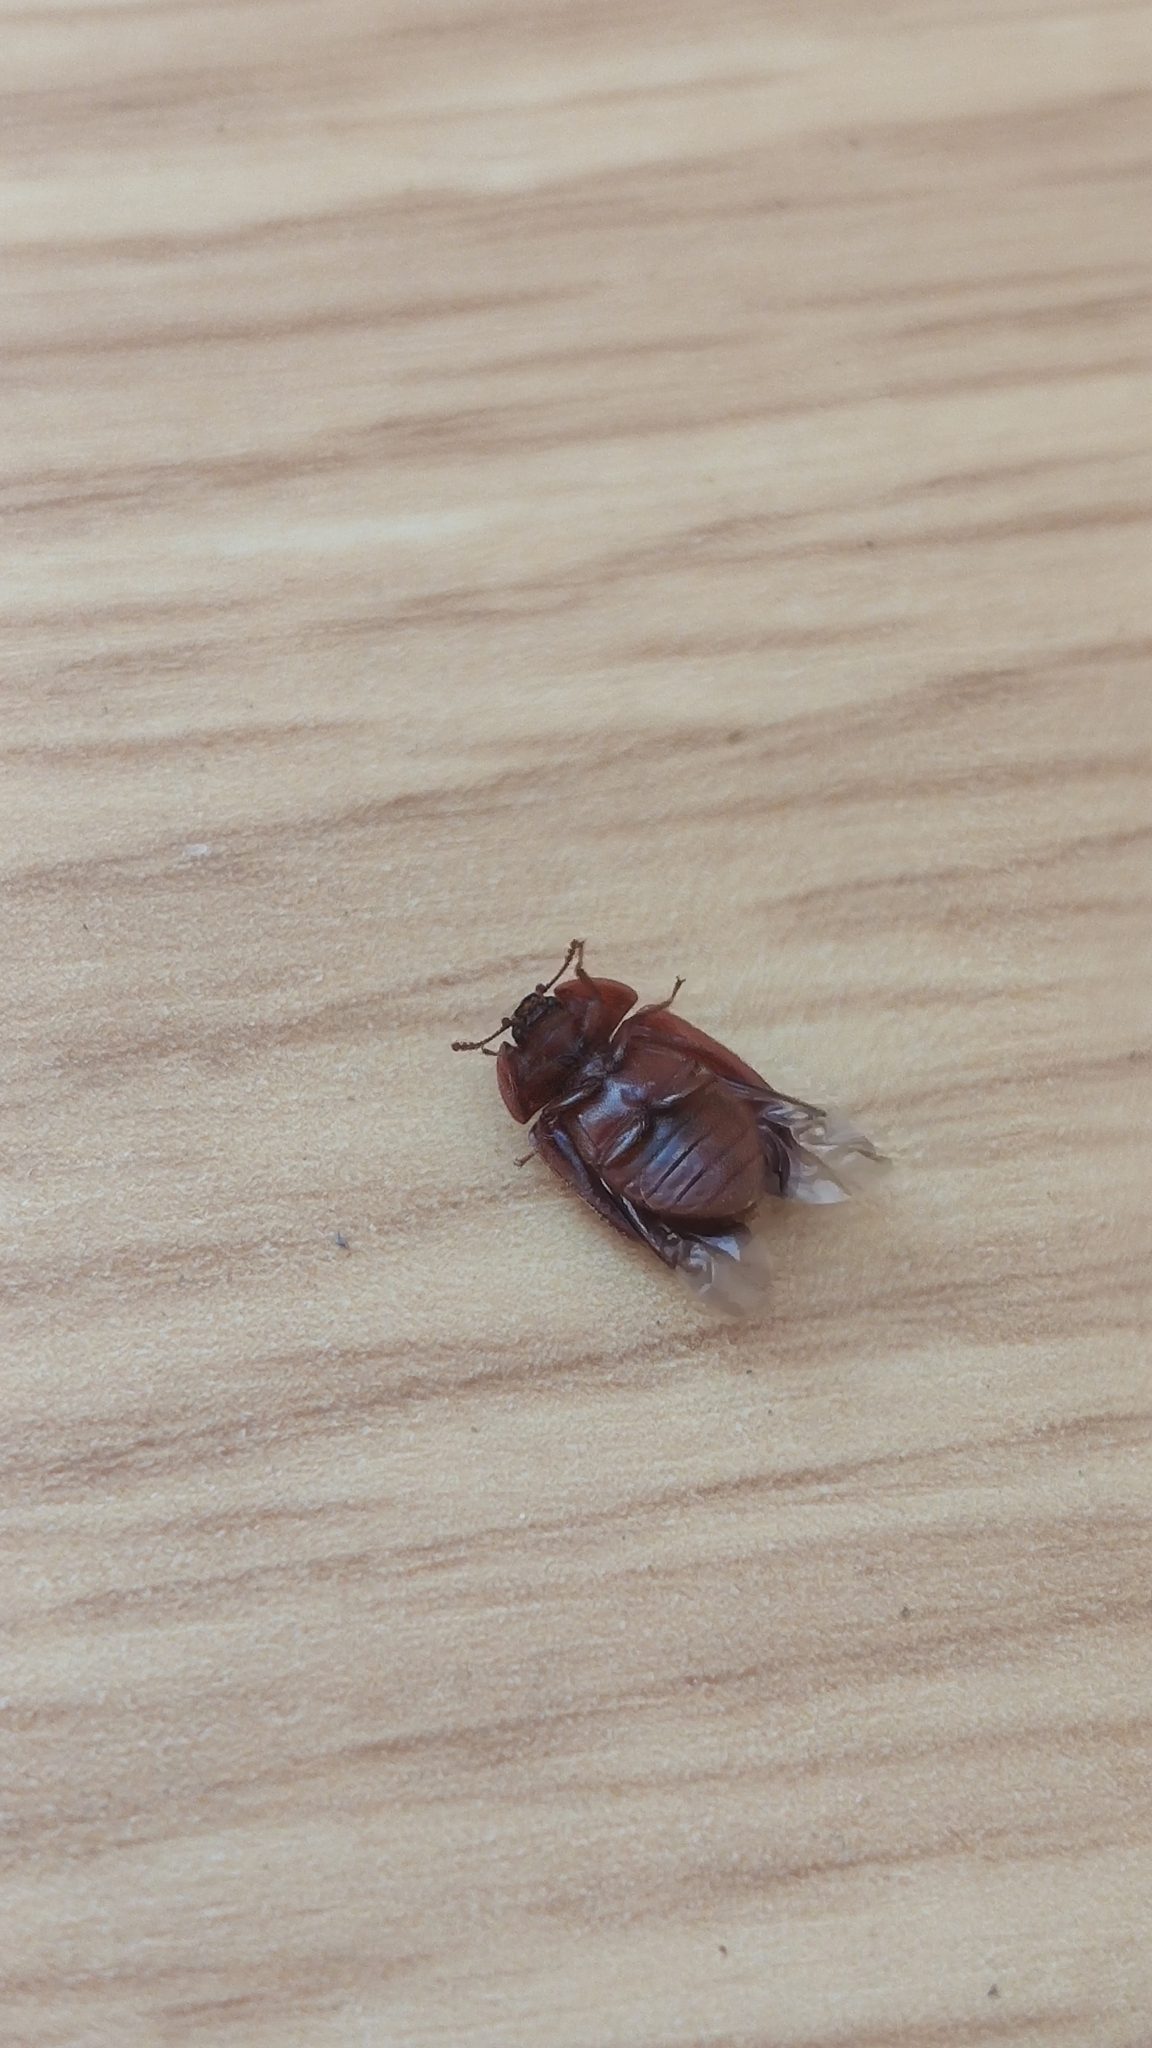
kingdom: Animalia
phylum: Arthropoda
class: Insecta
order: Coleoptera
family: Trogossitidae
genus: Peltis
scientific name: Peltis ferruginea
